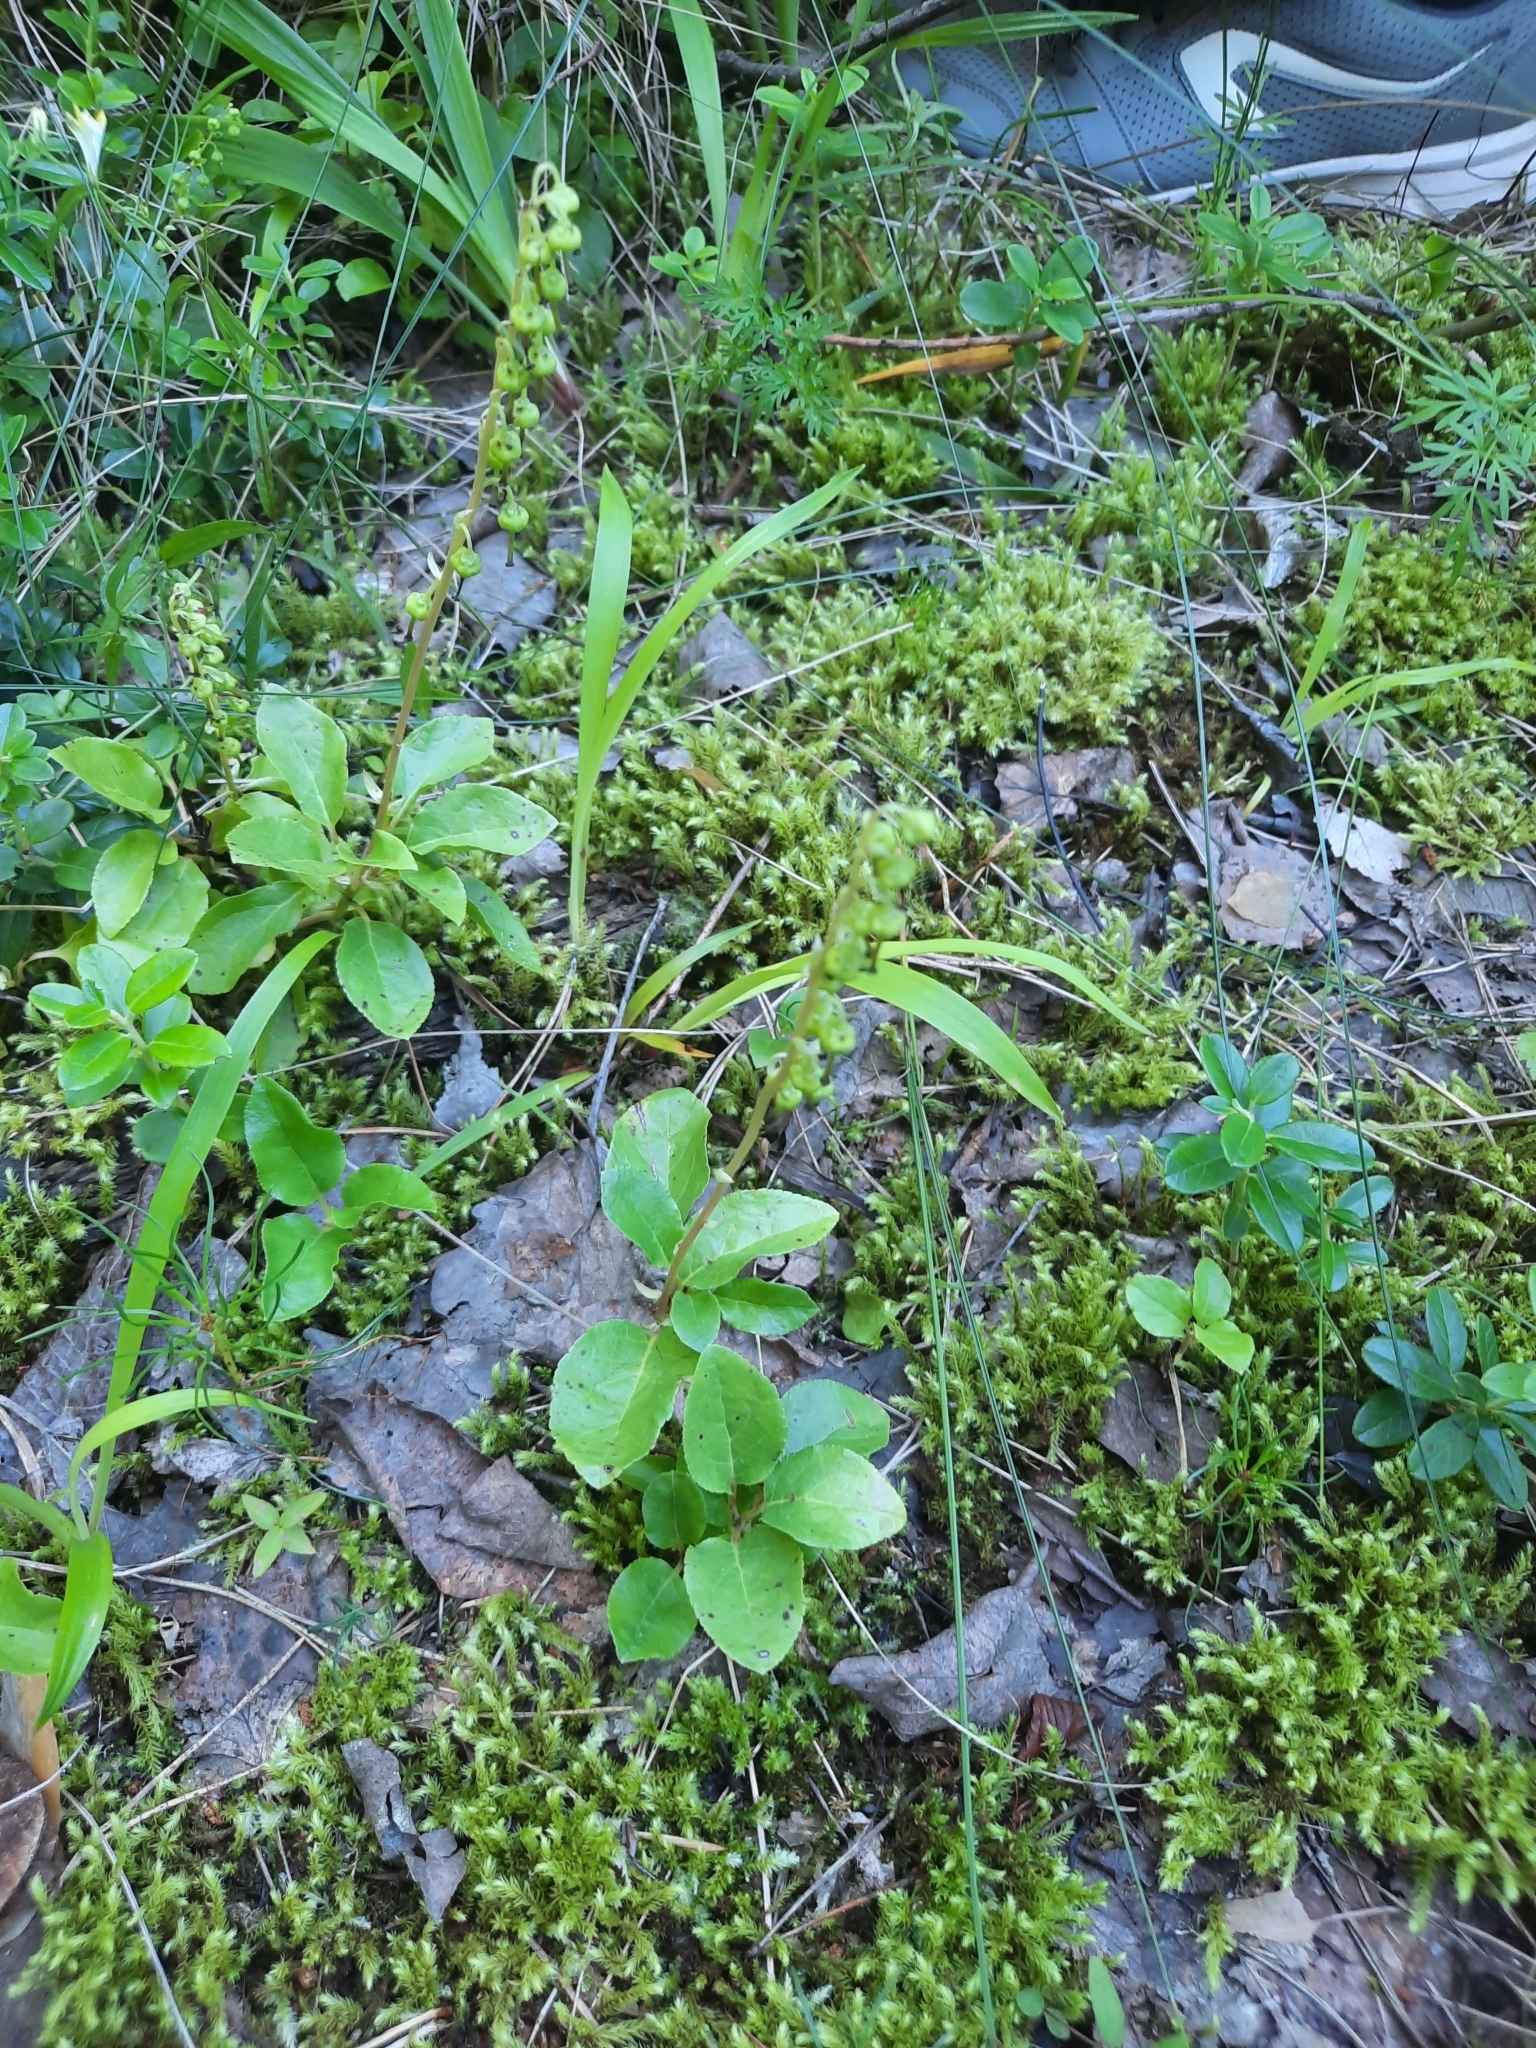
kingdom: Plantae
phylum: Tracheophyta
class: Magnoliopsida
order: Ericales
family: Ericaceae
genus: Orthilia
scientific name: Orthilia secunda
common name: One-sided orthilia
